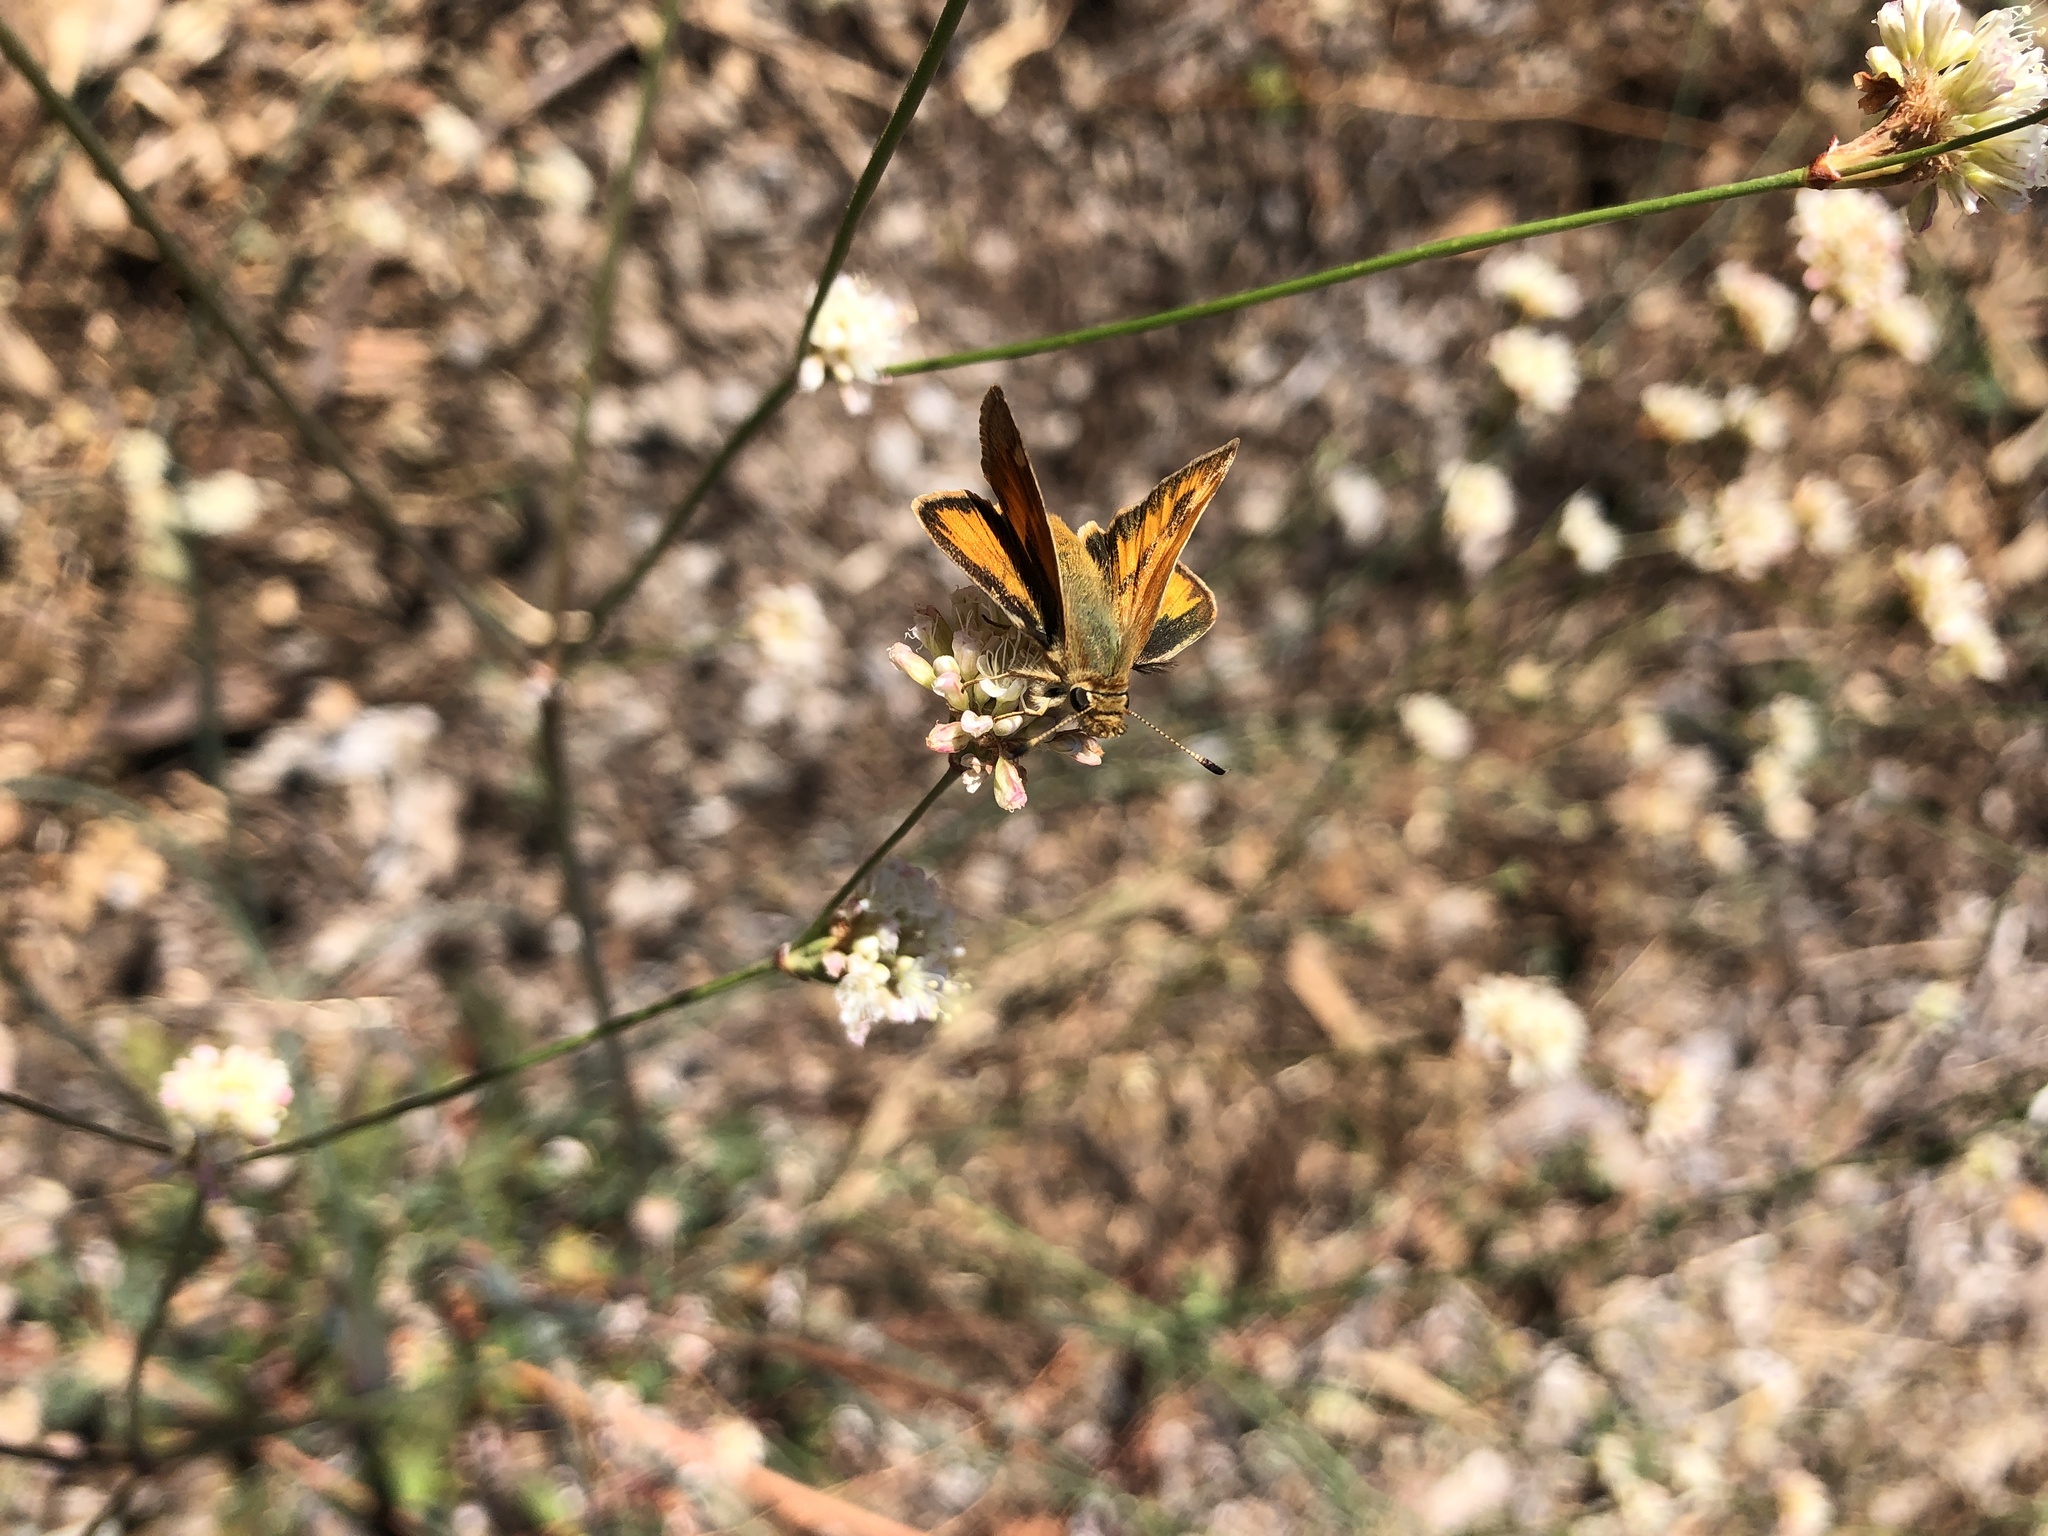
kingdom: Animalia
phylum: Arthropoda
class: Insecta
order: Lepidoptera
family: Hesperiidae
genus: Ochlodes
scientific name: Ochlodes sylvanoides
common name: Woodland skipper
